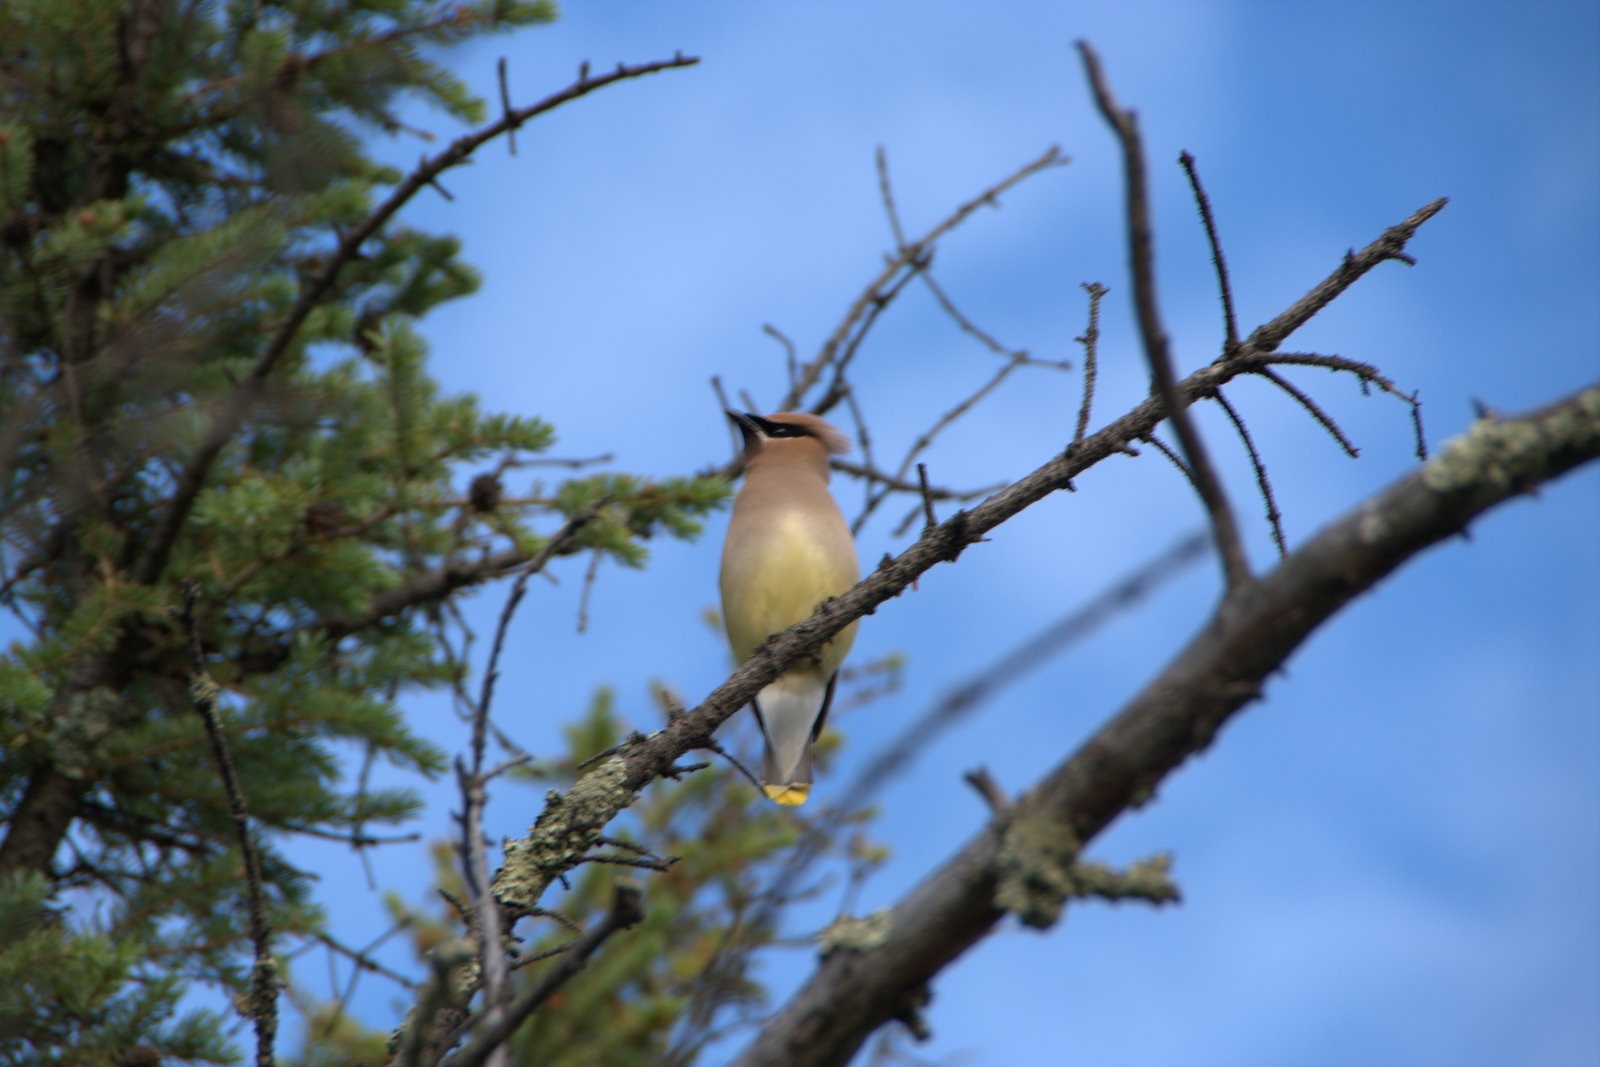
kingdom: Animalia
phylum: Chordata
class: Aves
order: Passeriformes
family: Bombycillidae
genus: Bombycilla
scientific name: Bombycilla cedrorum
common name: Cedar waxwing
